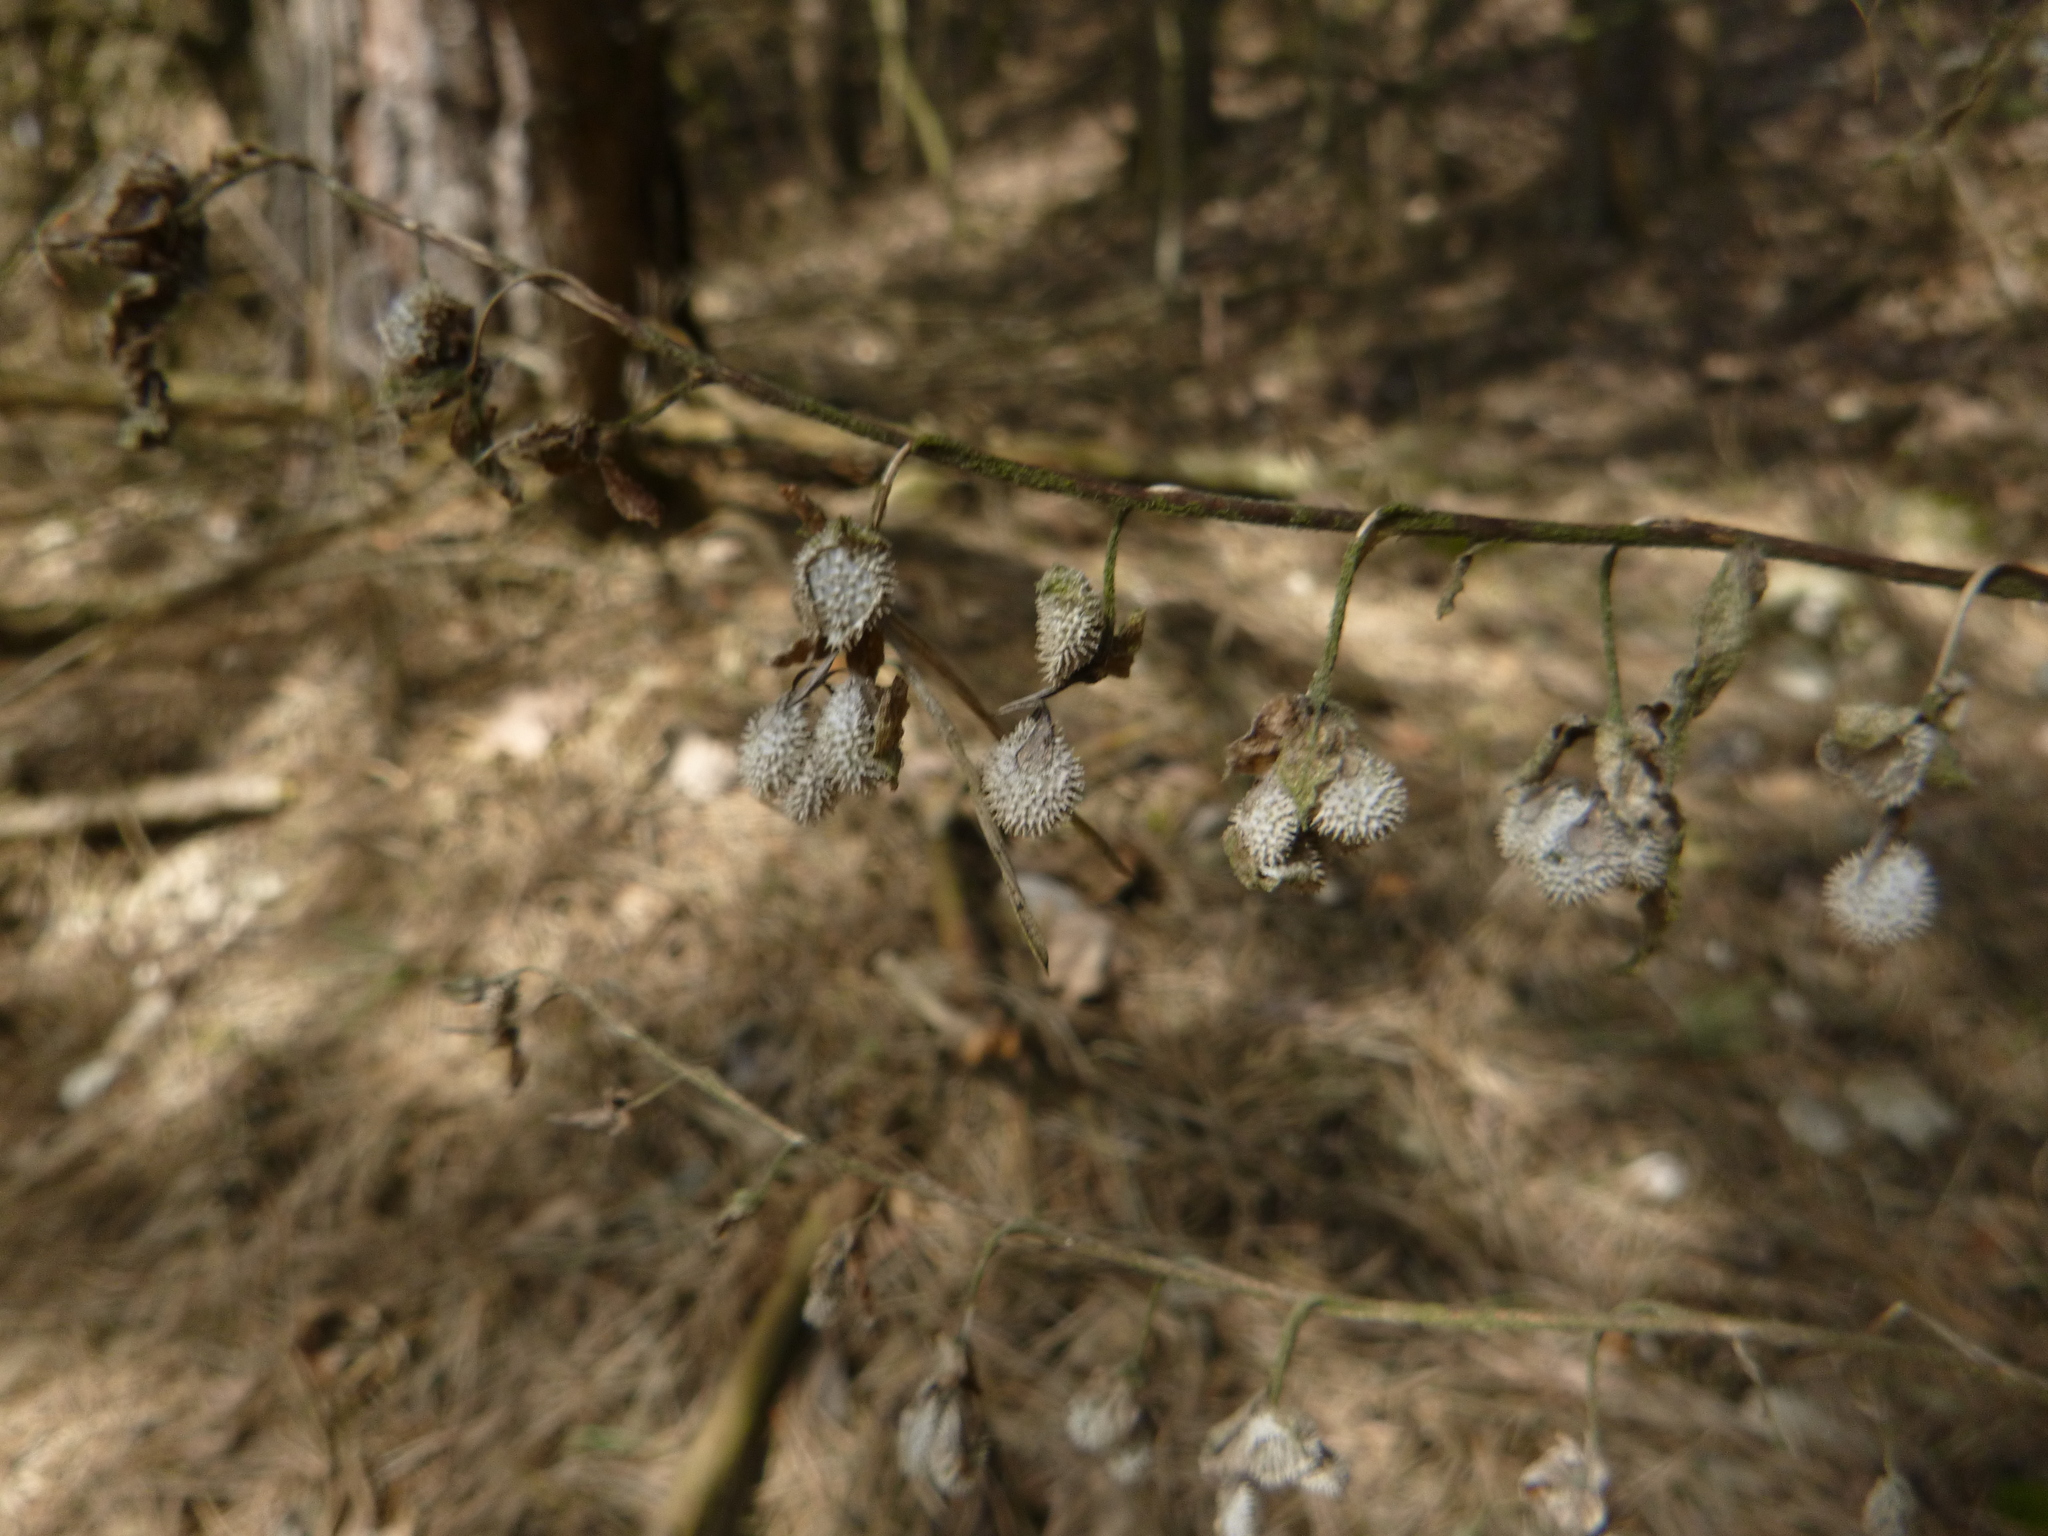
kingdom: Plantae
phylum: Tracheophyta
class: Magnoliopsida
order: Boraginales
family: Boraginaceae
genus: Cynoglossum
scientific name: Cynoglossum officinale
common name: Hound's-tongue
